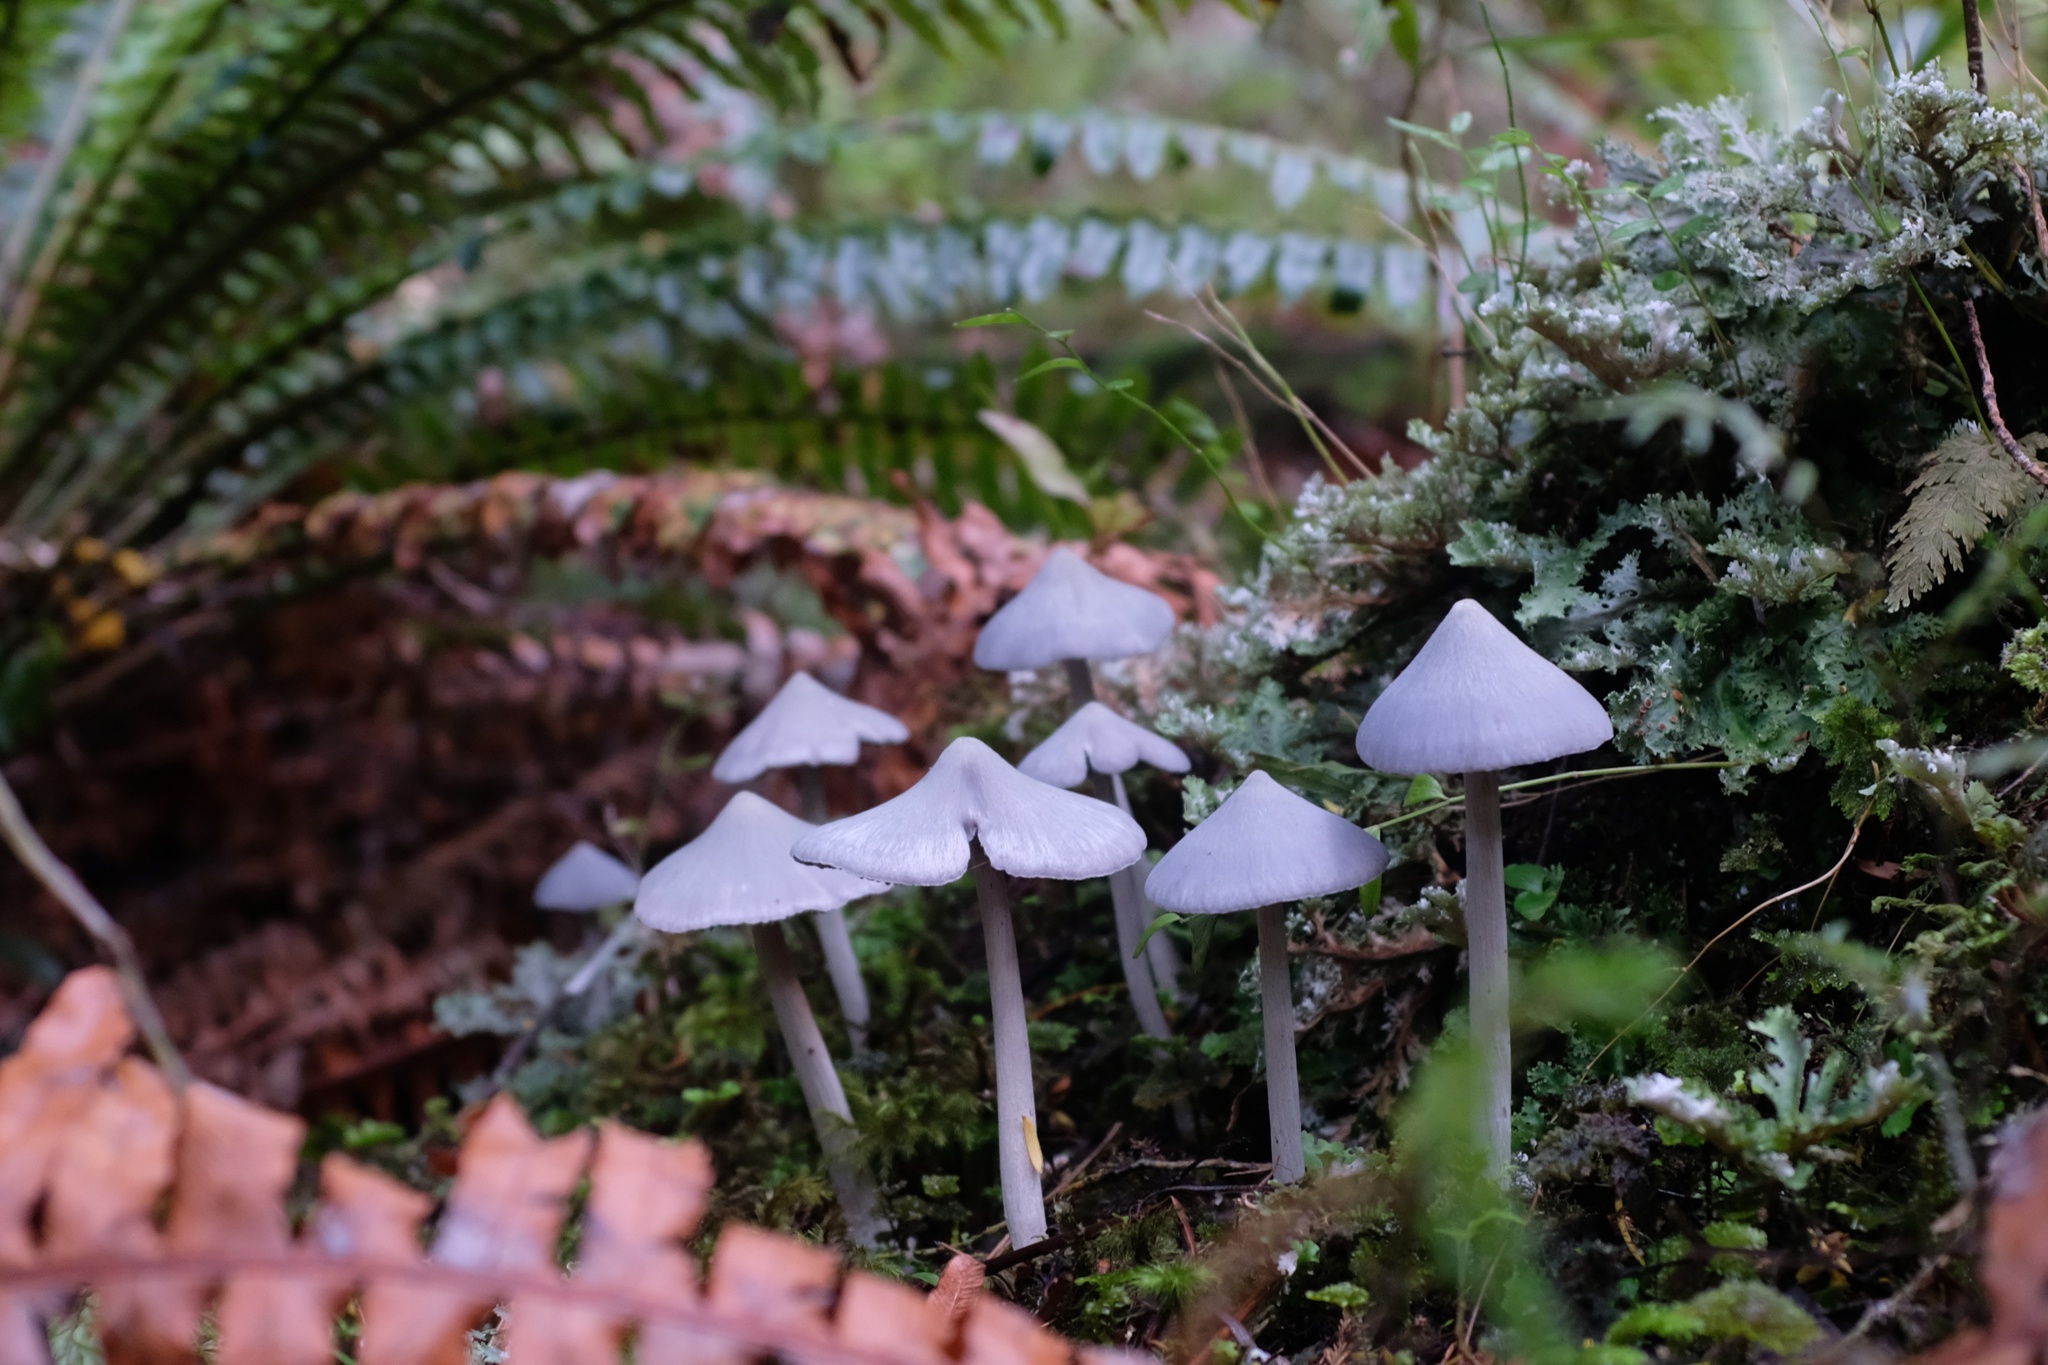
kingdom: Fungi
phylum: Basidiomycota
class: Agaricomycetes
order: Agaricales
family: Entolomataceae
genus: Entoloma
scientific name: Entoloma hochstetteri
